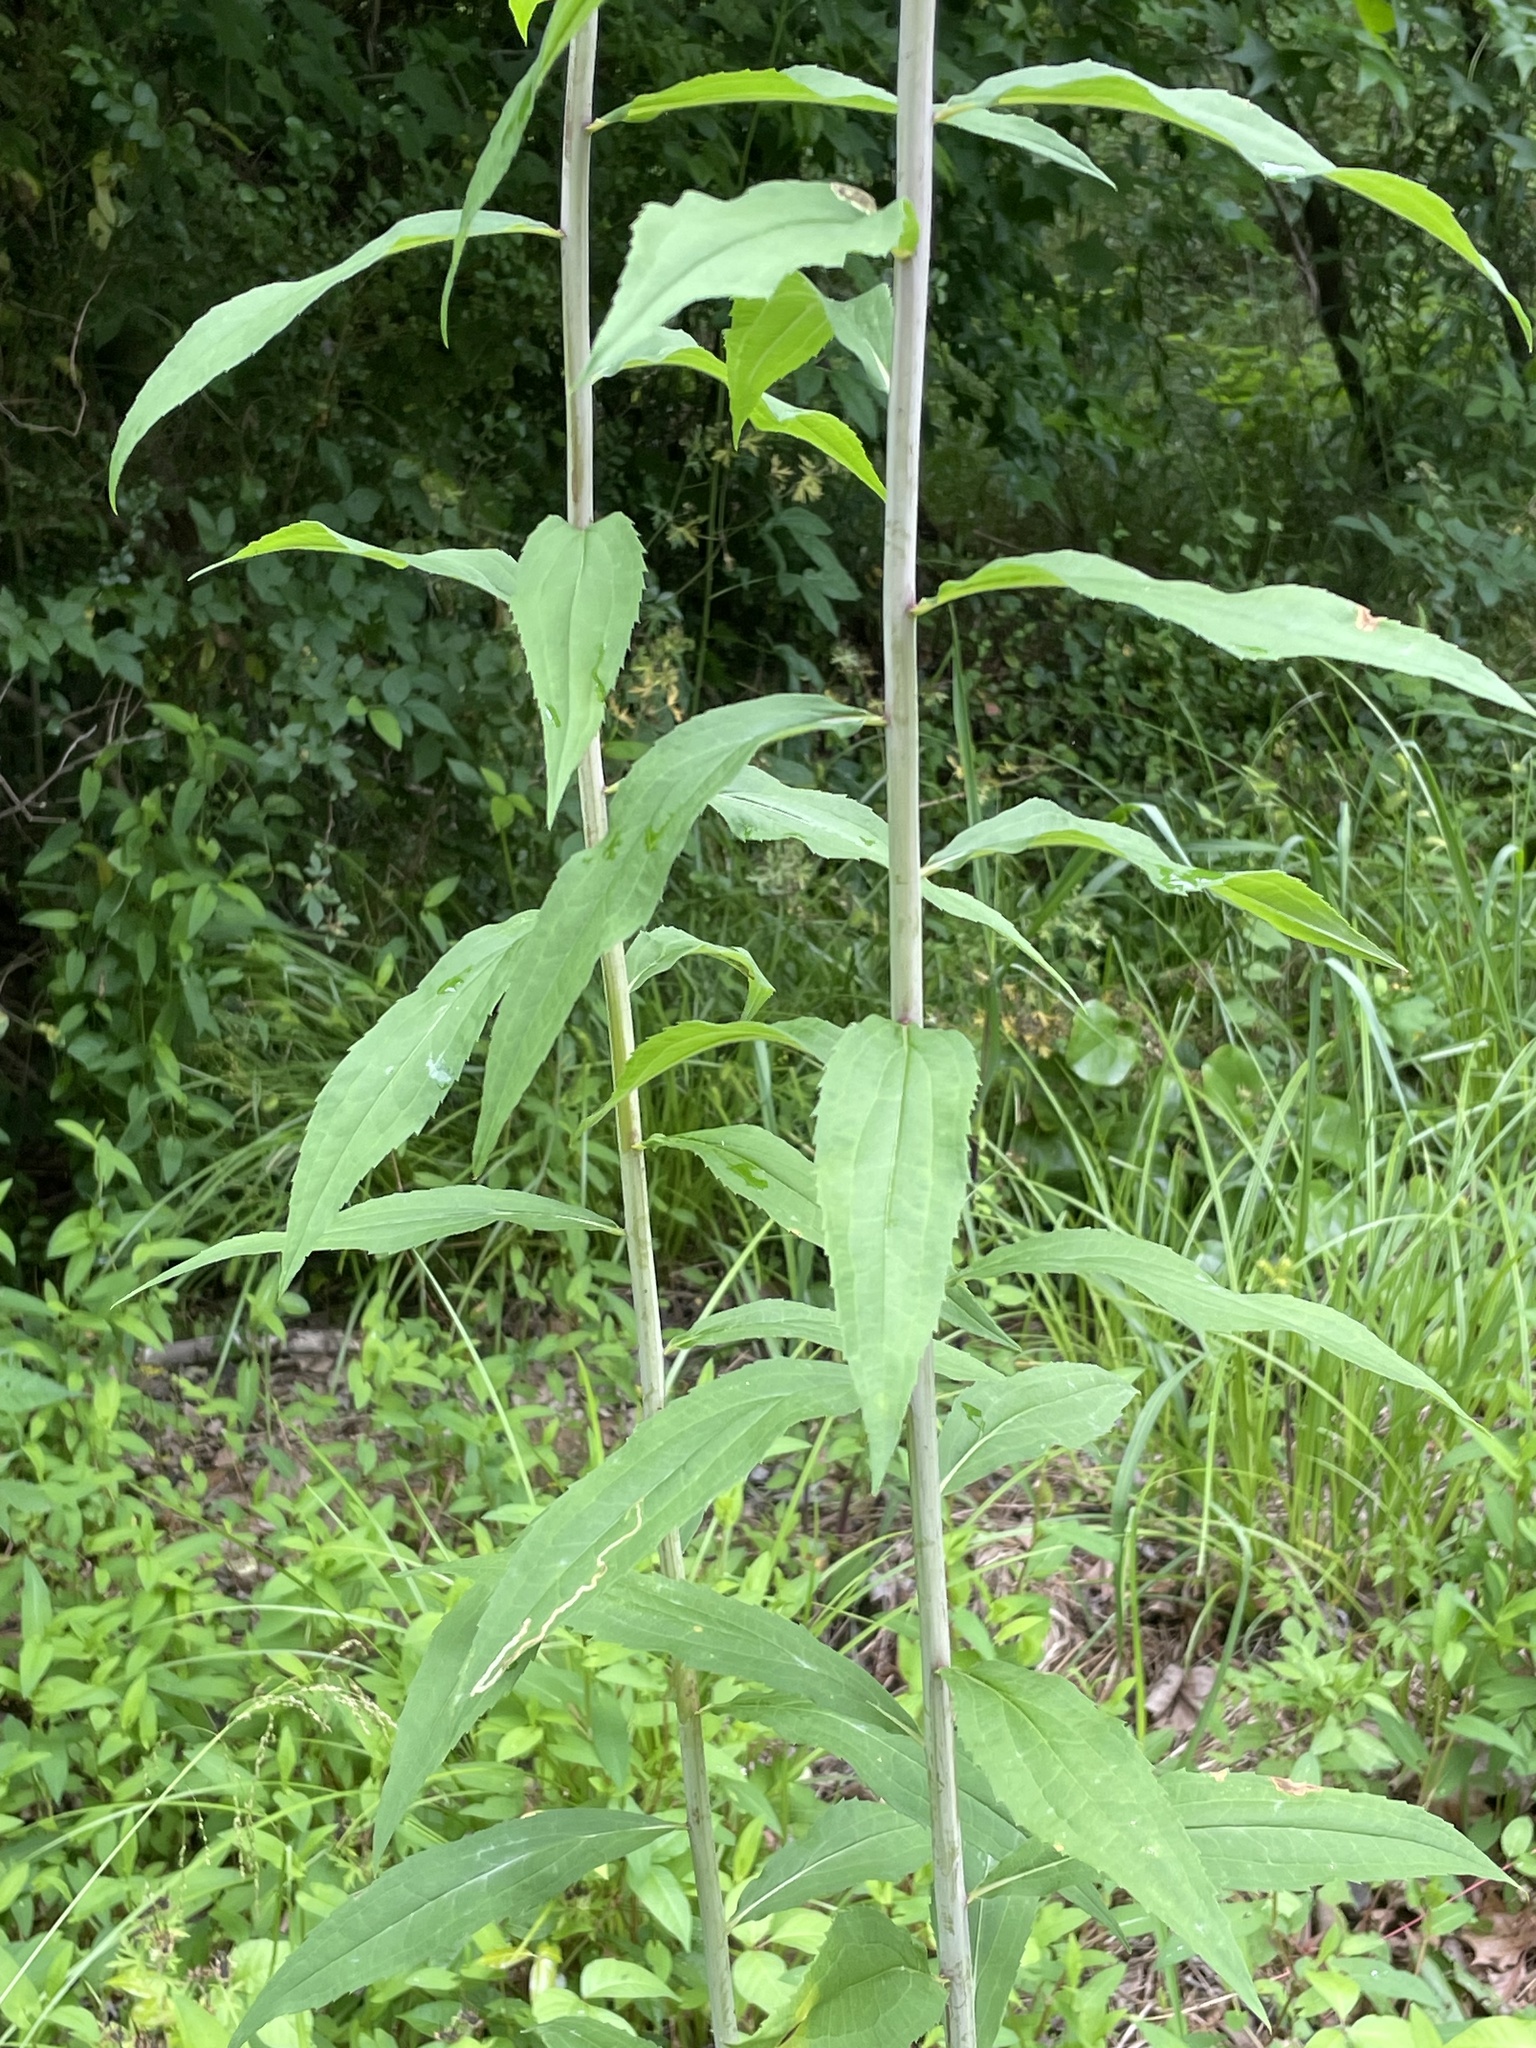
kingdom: Plantae
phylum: Tracheophyta
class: Magnoliopsida
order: Asterales
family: Asteraceae
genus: Solidago
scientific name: Solidago gigantea
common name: Giant goldenrod
